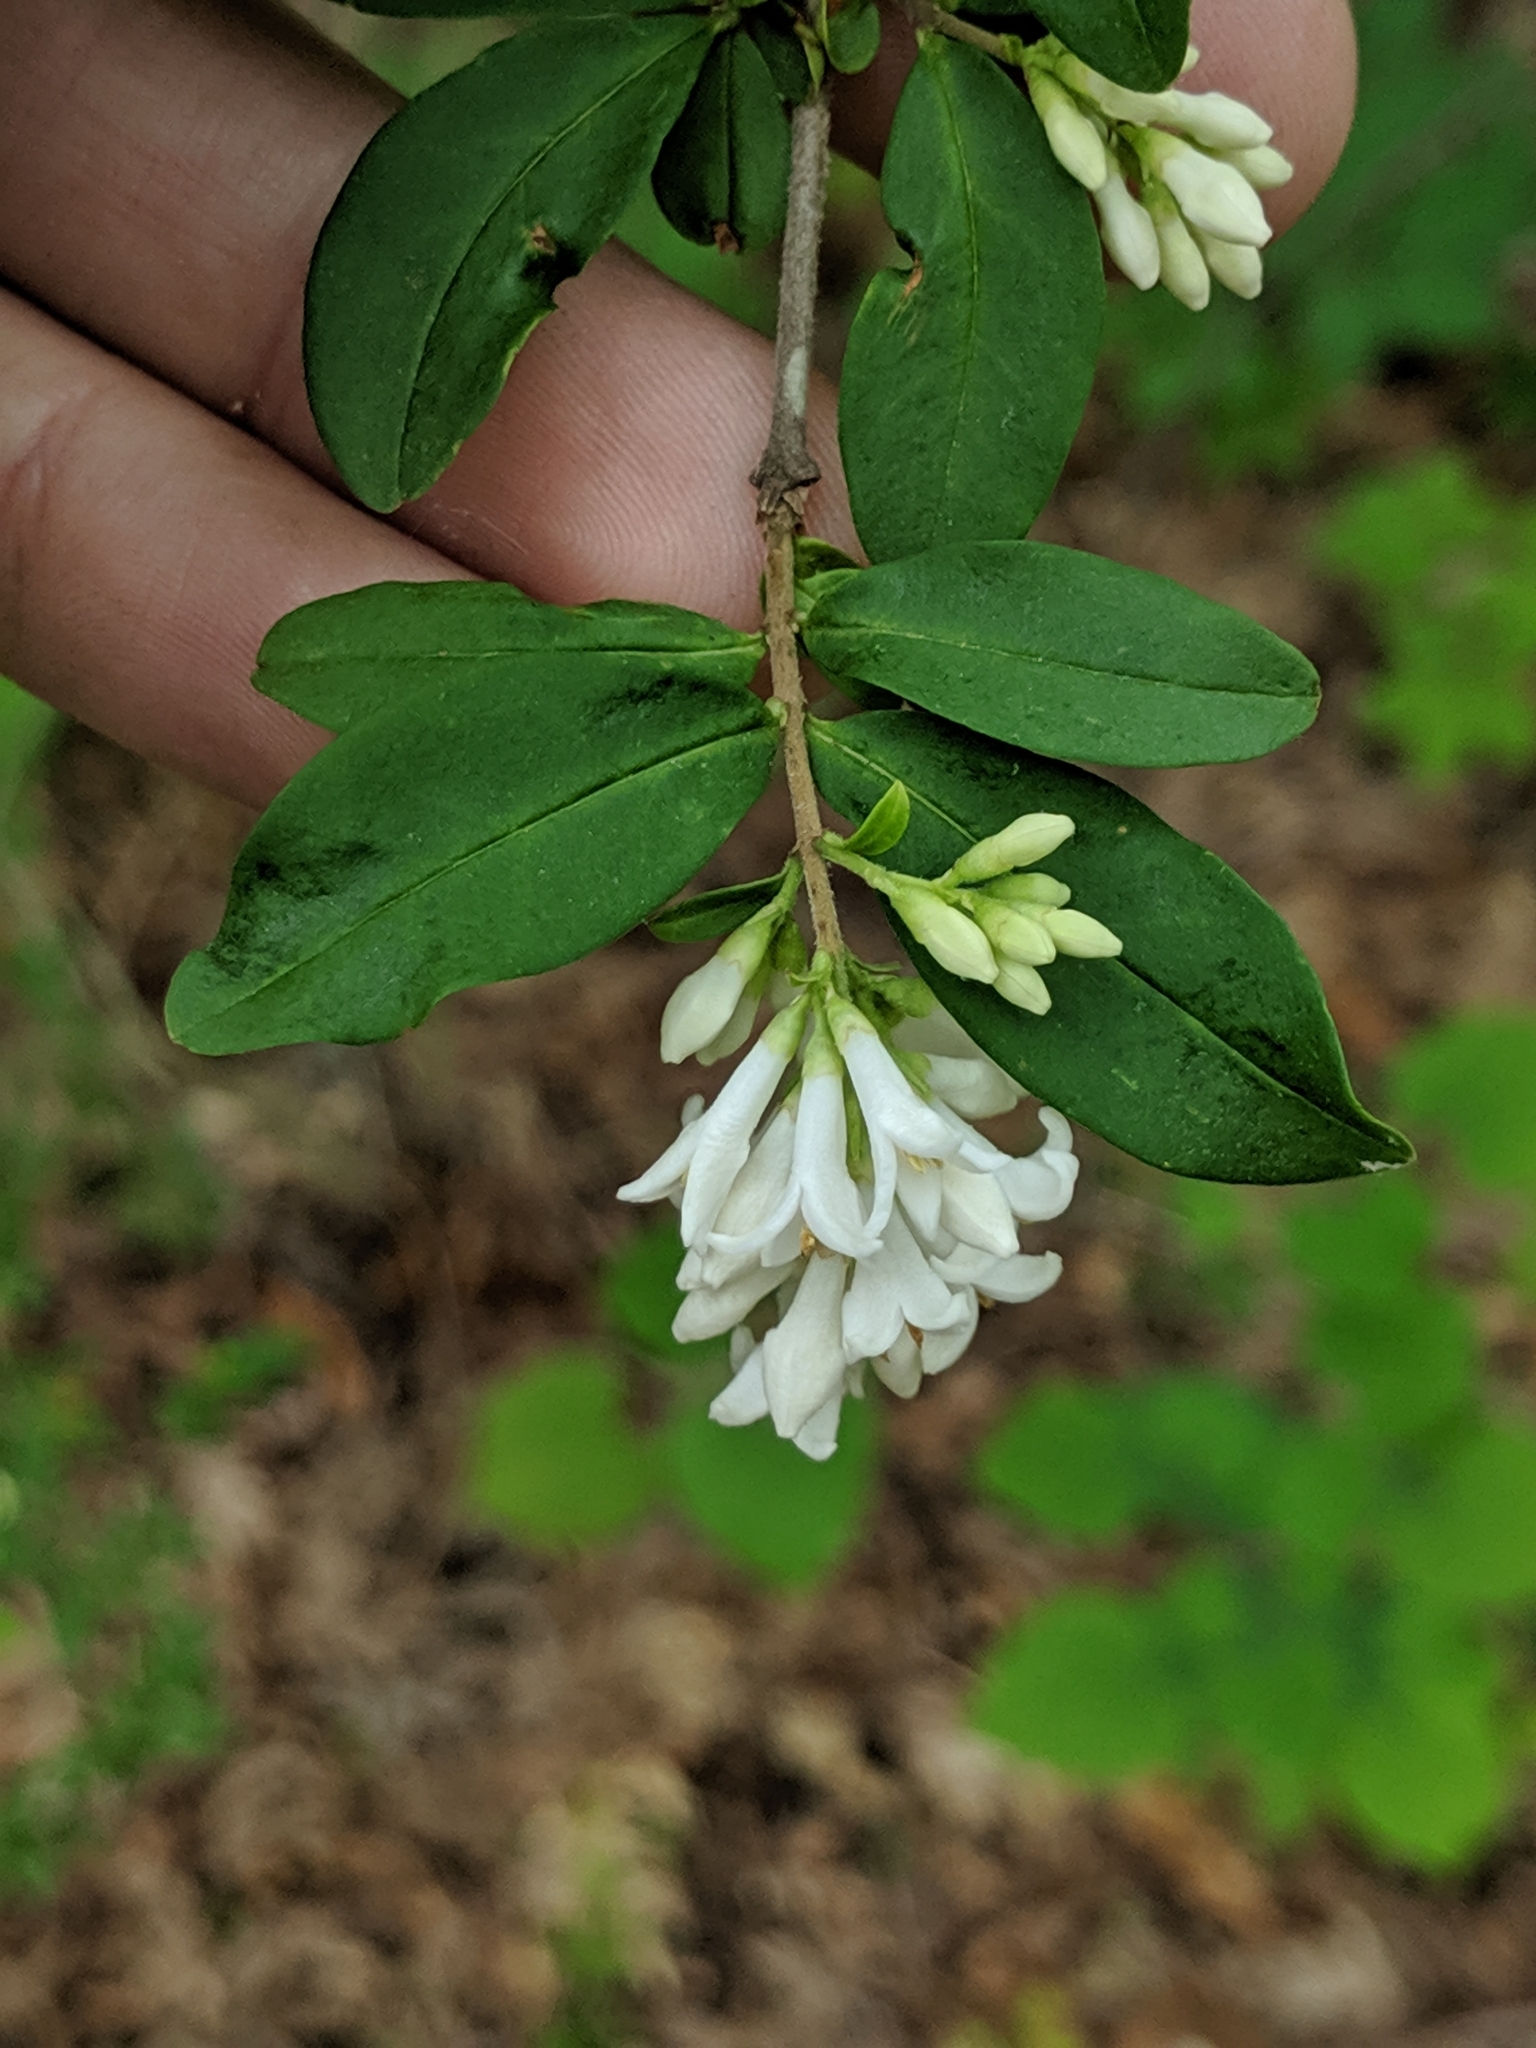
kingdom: Plantae
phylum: Tracheophyta
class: Magnoliopsida
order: Lamiales
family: Oleaceae
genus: Ligustrum
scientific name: Ligustrum obtusifolium
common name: Border privet
